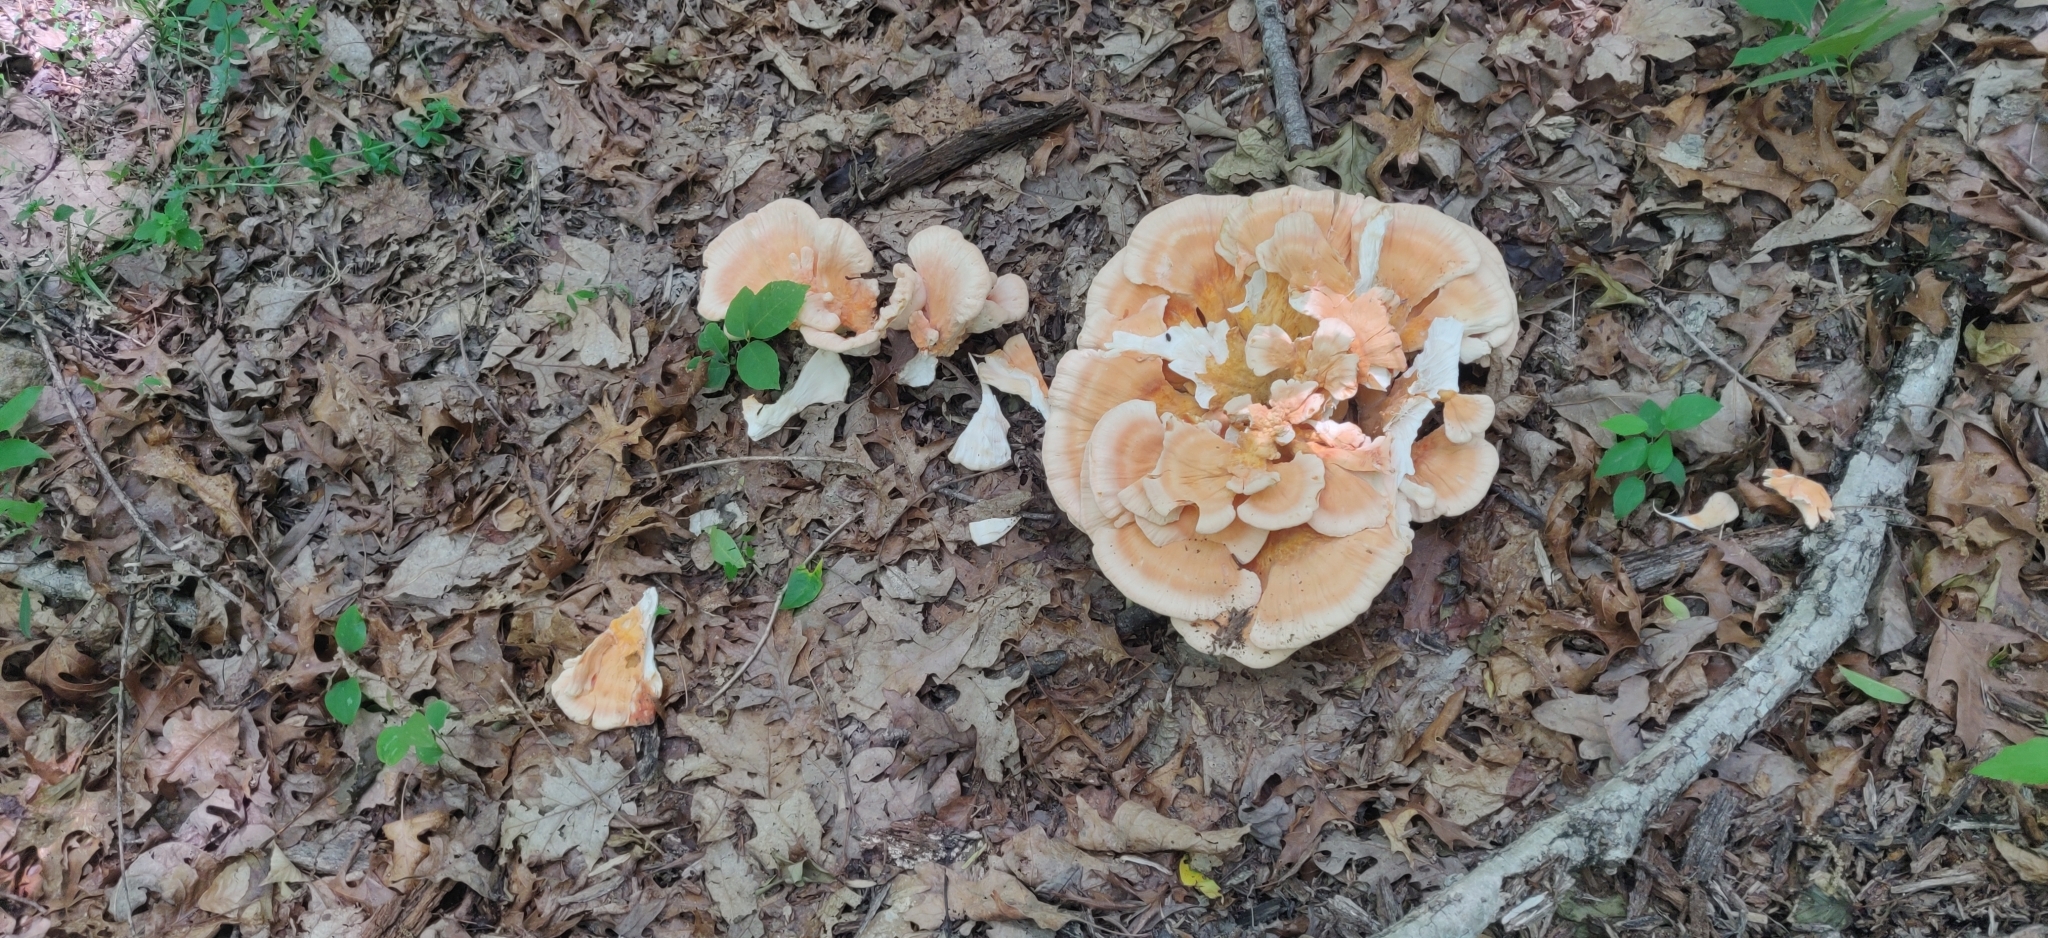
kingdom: Fungi
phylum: Basidiomycota
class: Agaricomycetes
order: Polyporales
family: Laetiporaceae
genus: Laetiporus
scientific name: Laetiporus sulphureus
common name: Chicken of the woods
